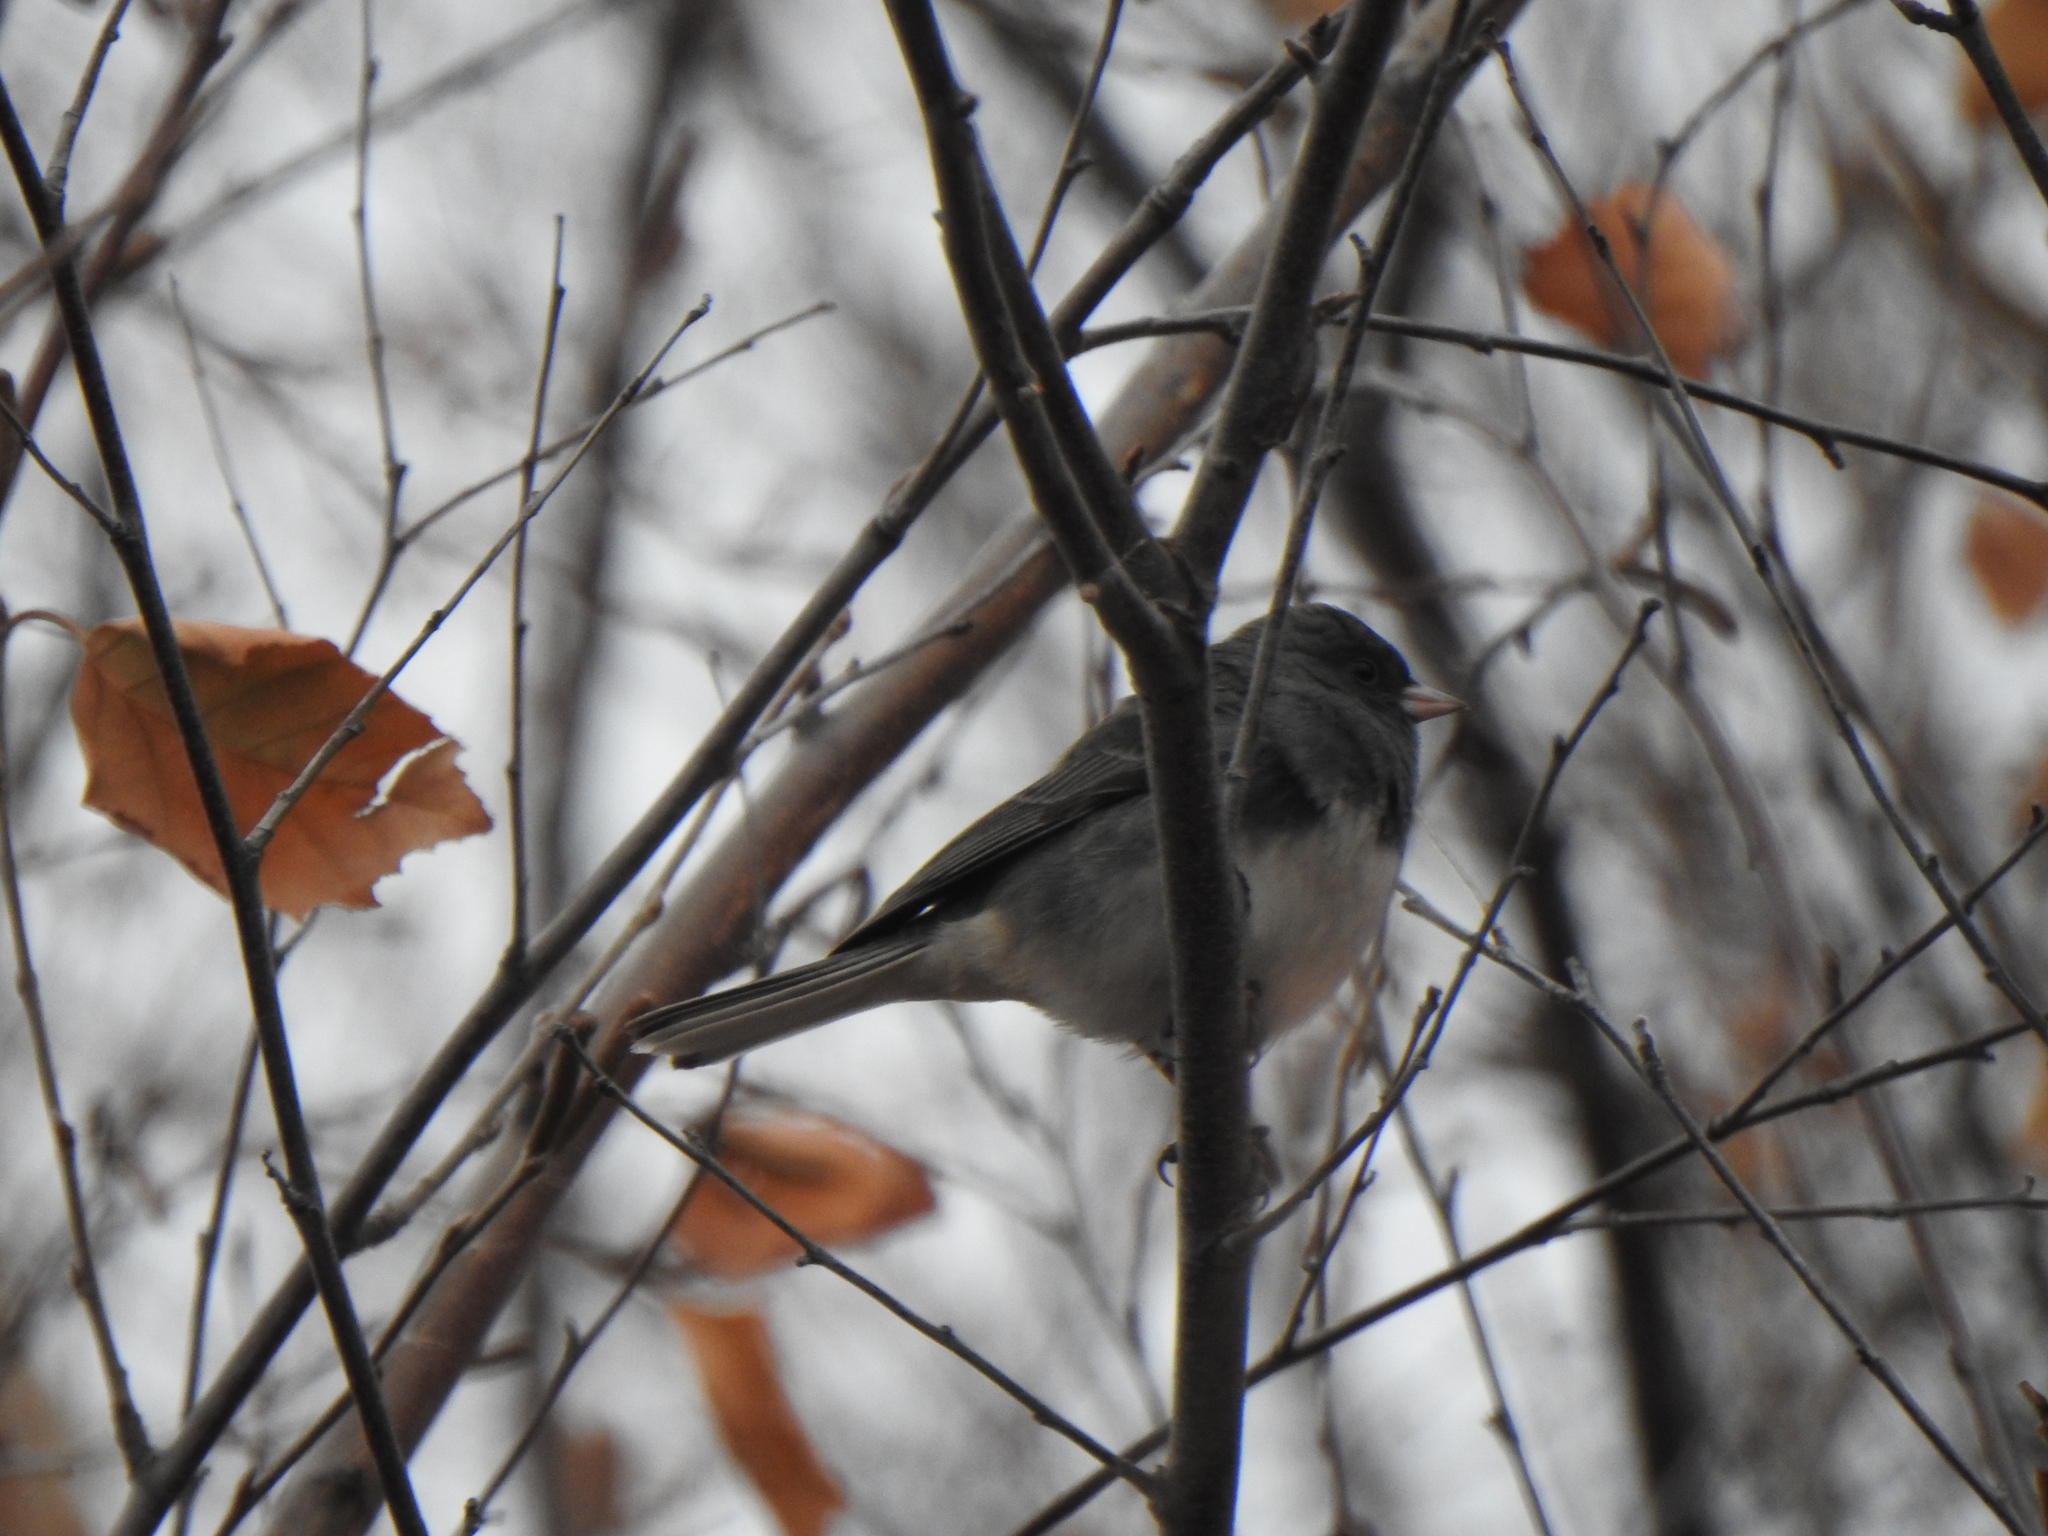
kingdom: Animalia
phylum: Chordata
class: Aves
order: Passeriformes
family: Passerellidae
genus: Junco
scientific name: Junco hyemalis
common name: Dark-eyed junco
